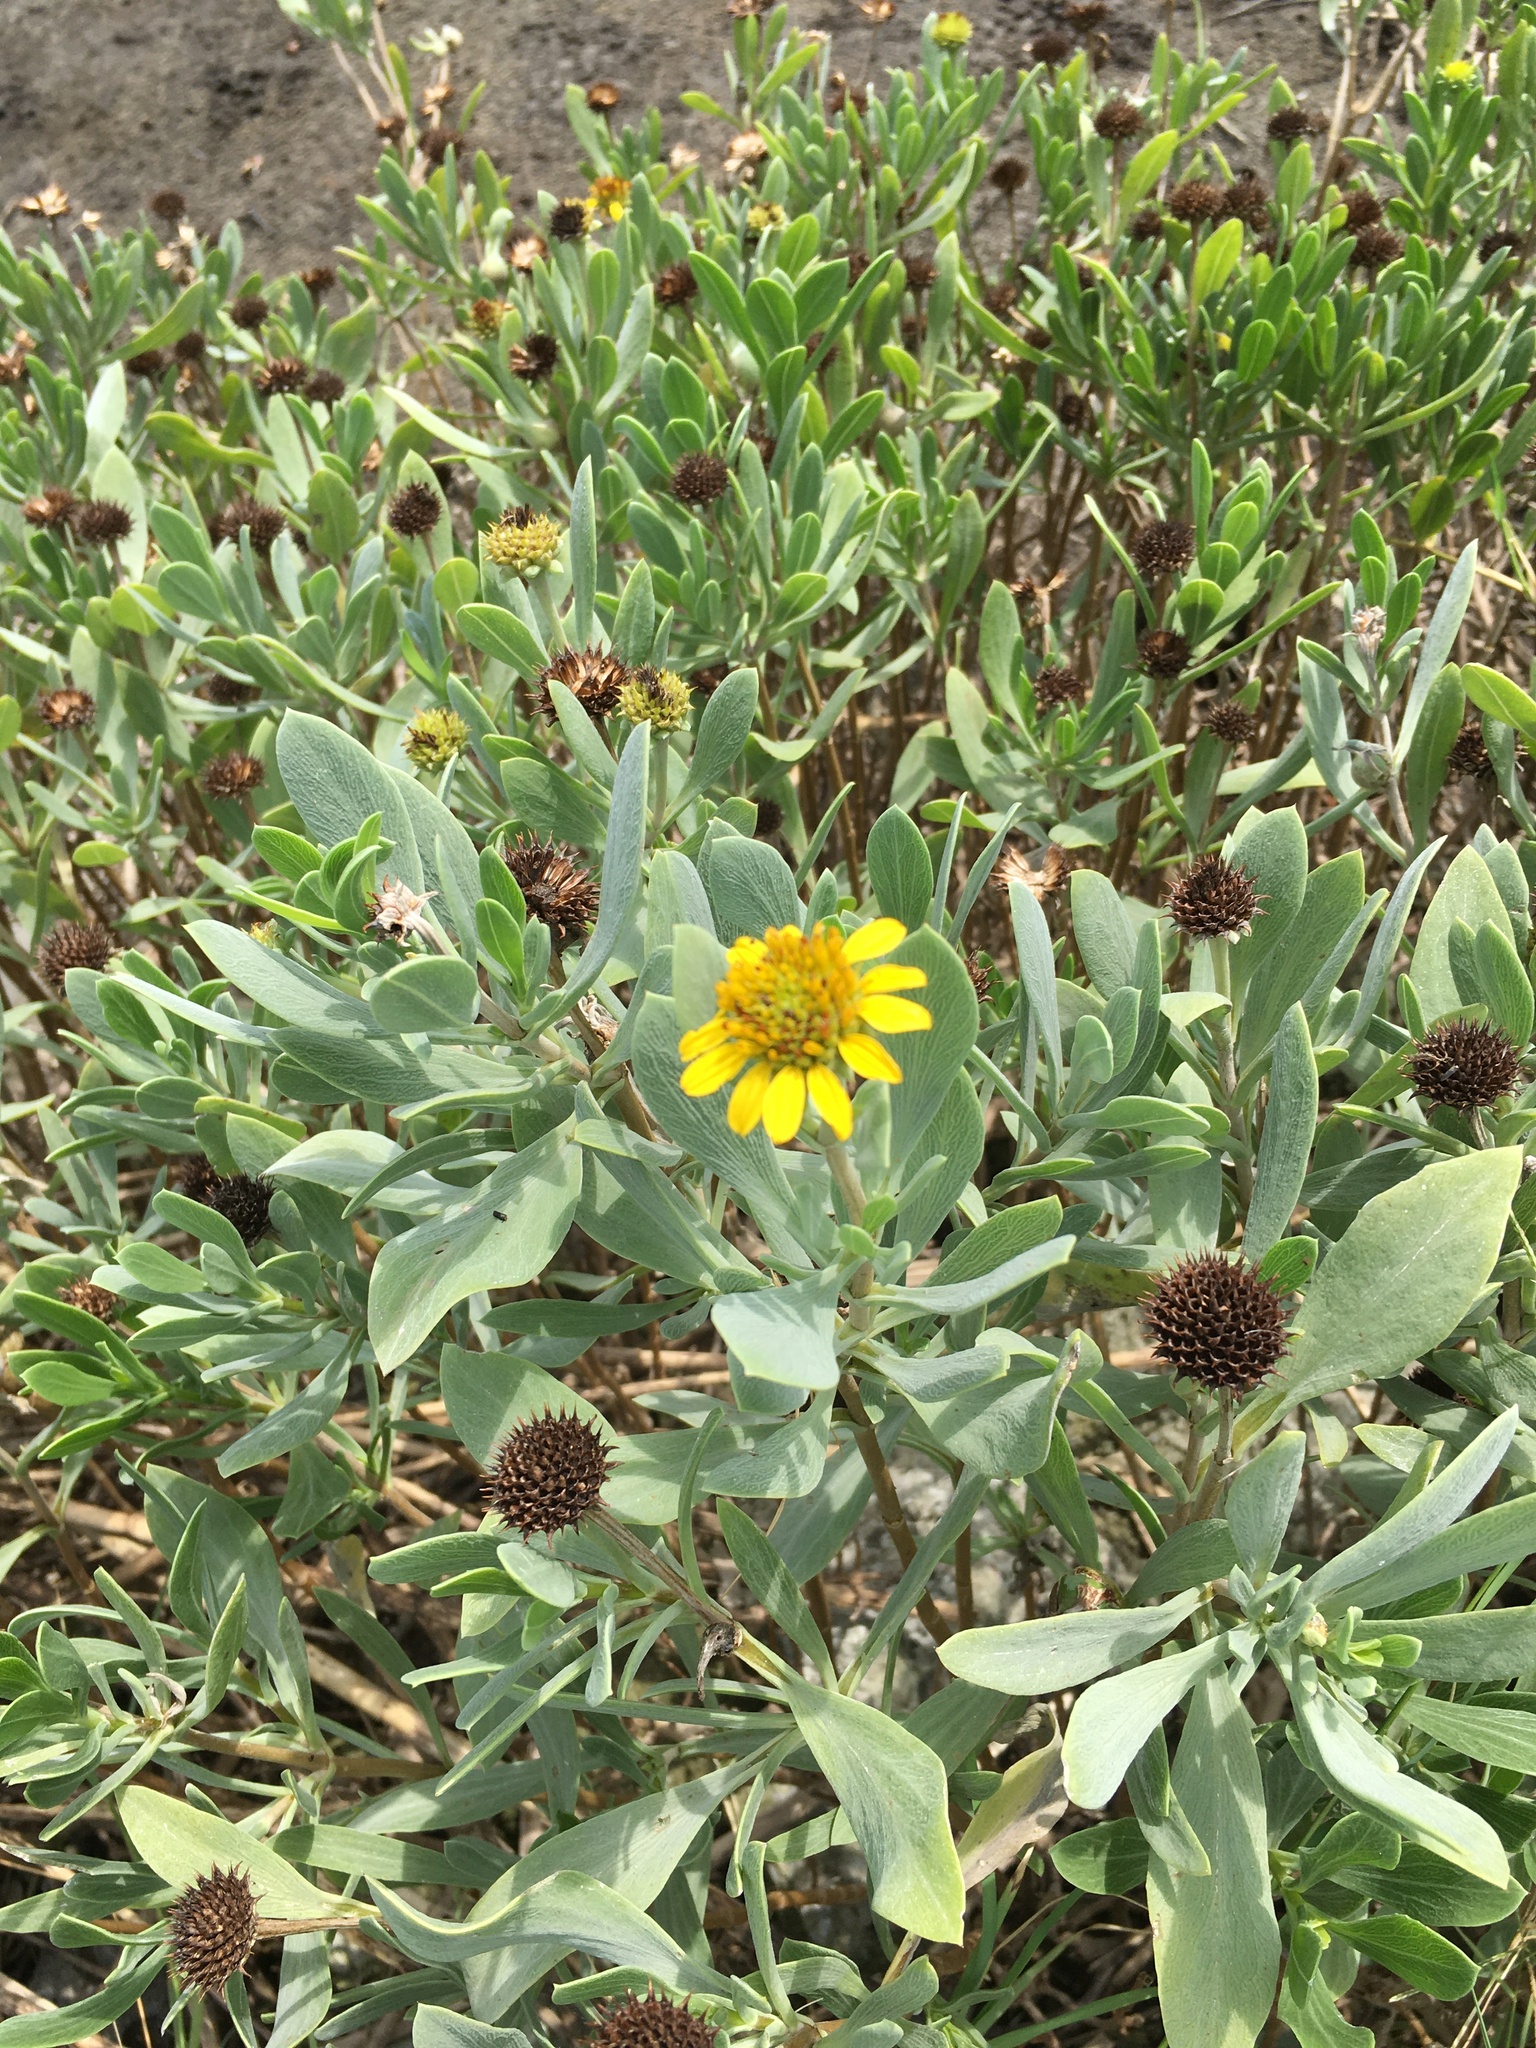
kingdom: Plantae
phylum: Tracheophyta
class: Magnoliopsida
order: Asterales
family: Asteraceae
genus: Borrichia
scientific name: Borrichia frutescens
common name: Sea oxeye
